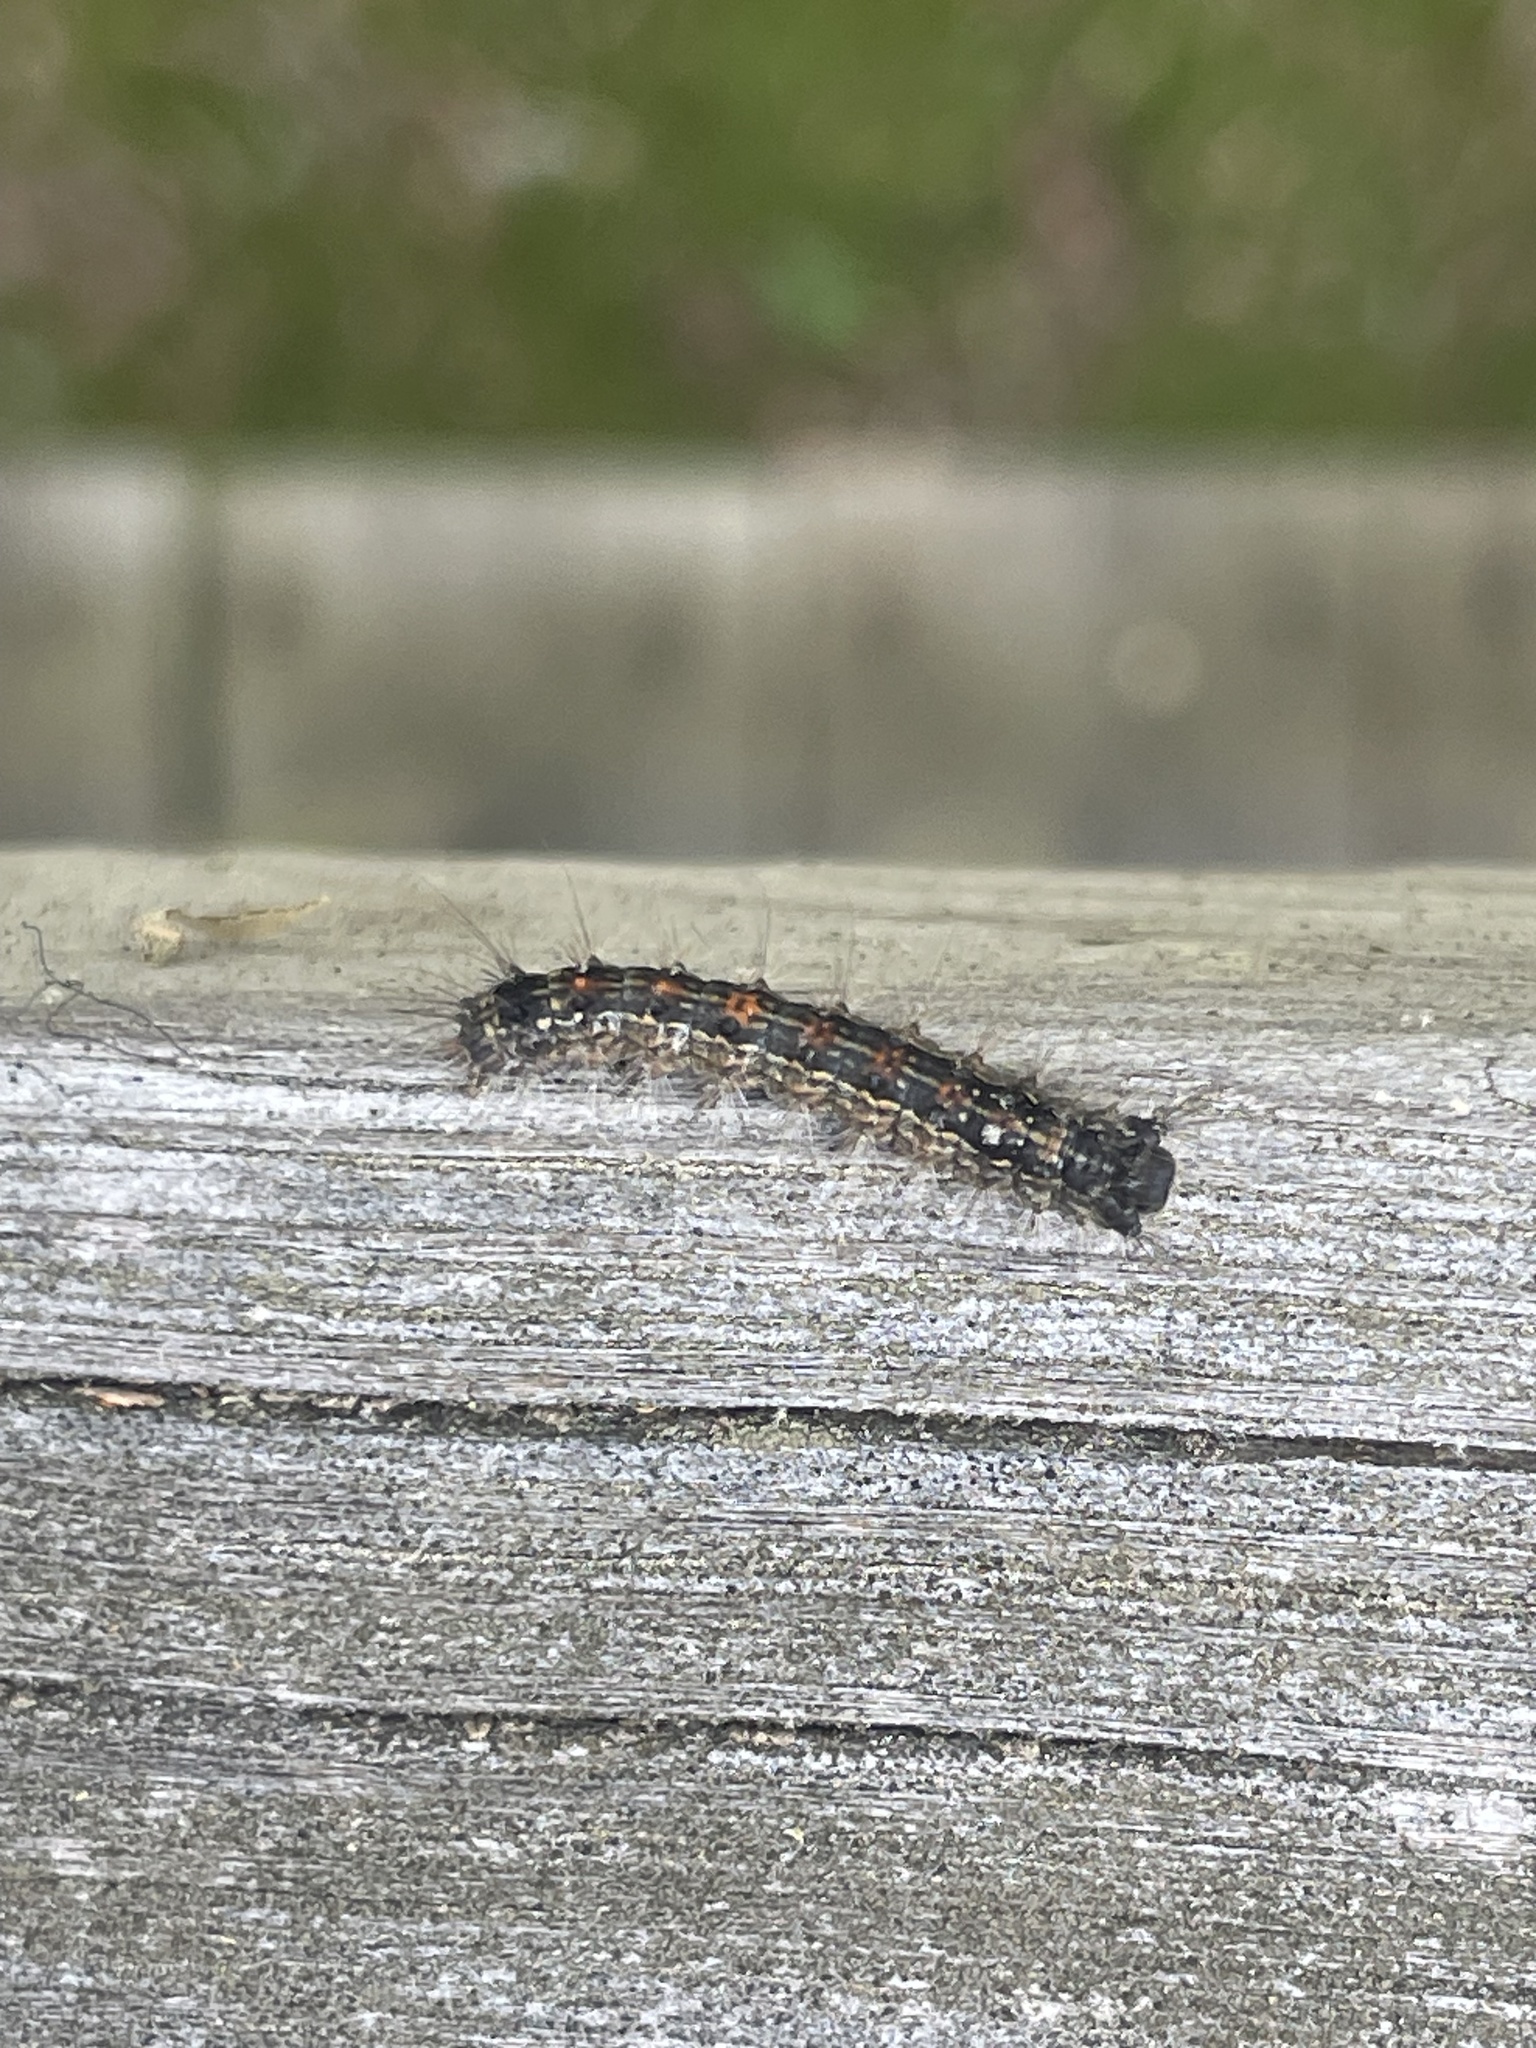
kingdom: Animalia
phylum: Arthropoda
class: Insecta
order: Lepidoptera
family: Erebidae
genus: Lymantria
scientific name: Lymantria dispar
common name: Gypsy moth
